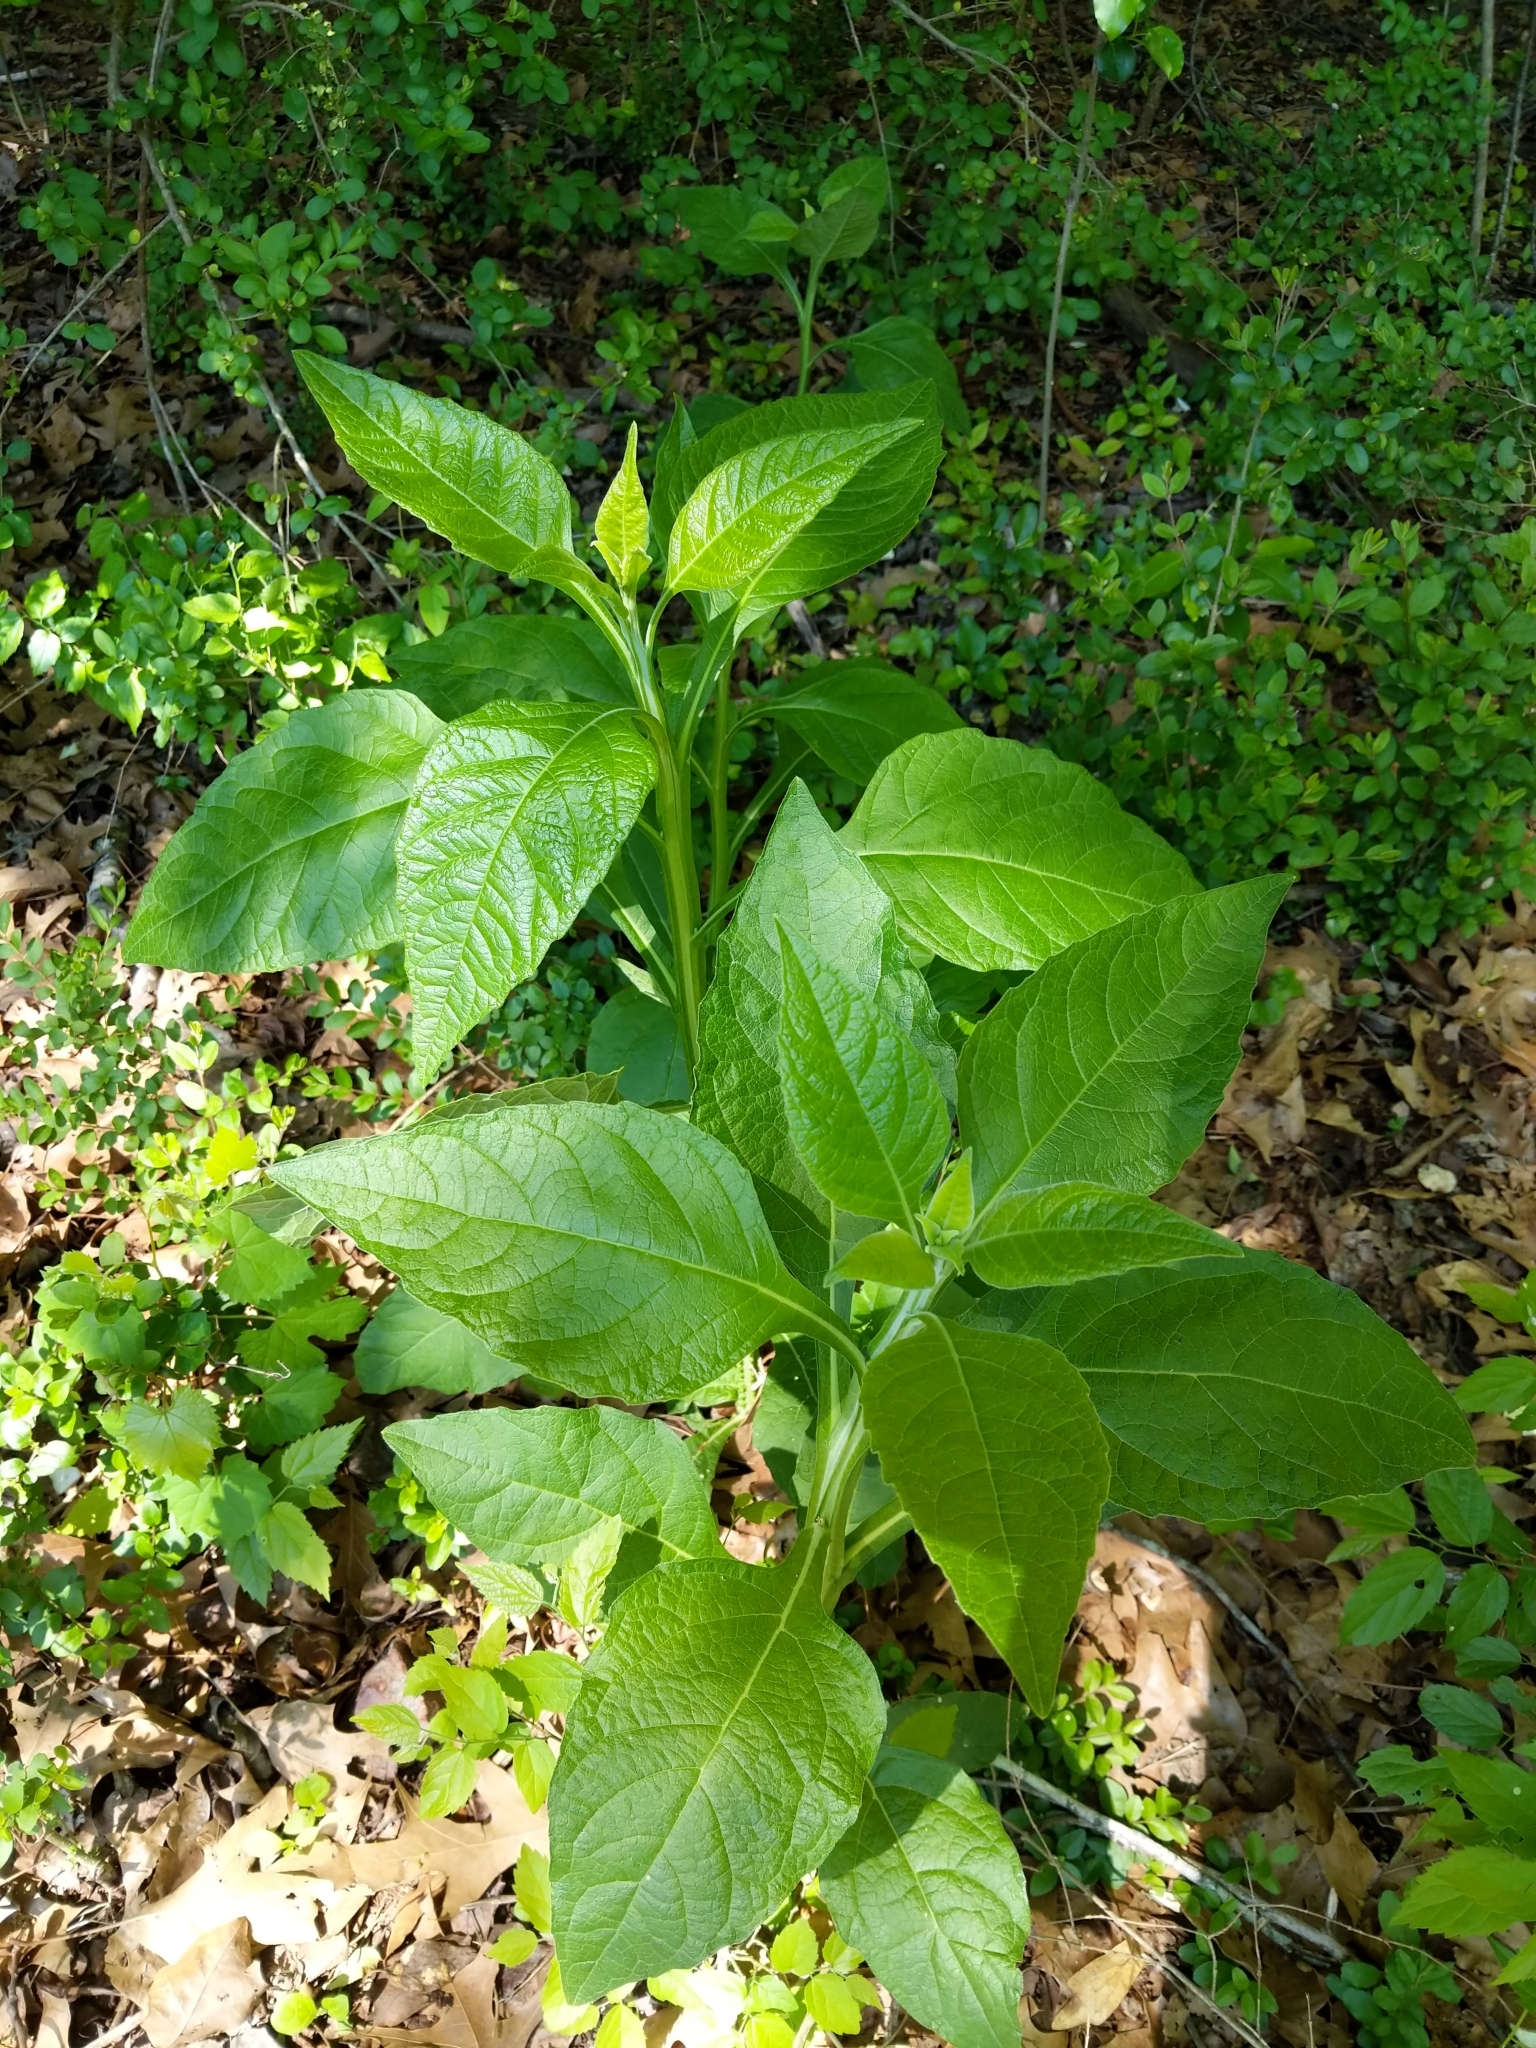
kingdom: Plantae
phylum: Tracheophyta
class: Magnoliopsida
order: Asterales
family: Asteraceae
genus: Verbesina
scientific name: Verbesina virginica
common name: Frostweed
